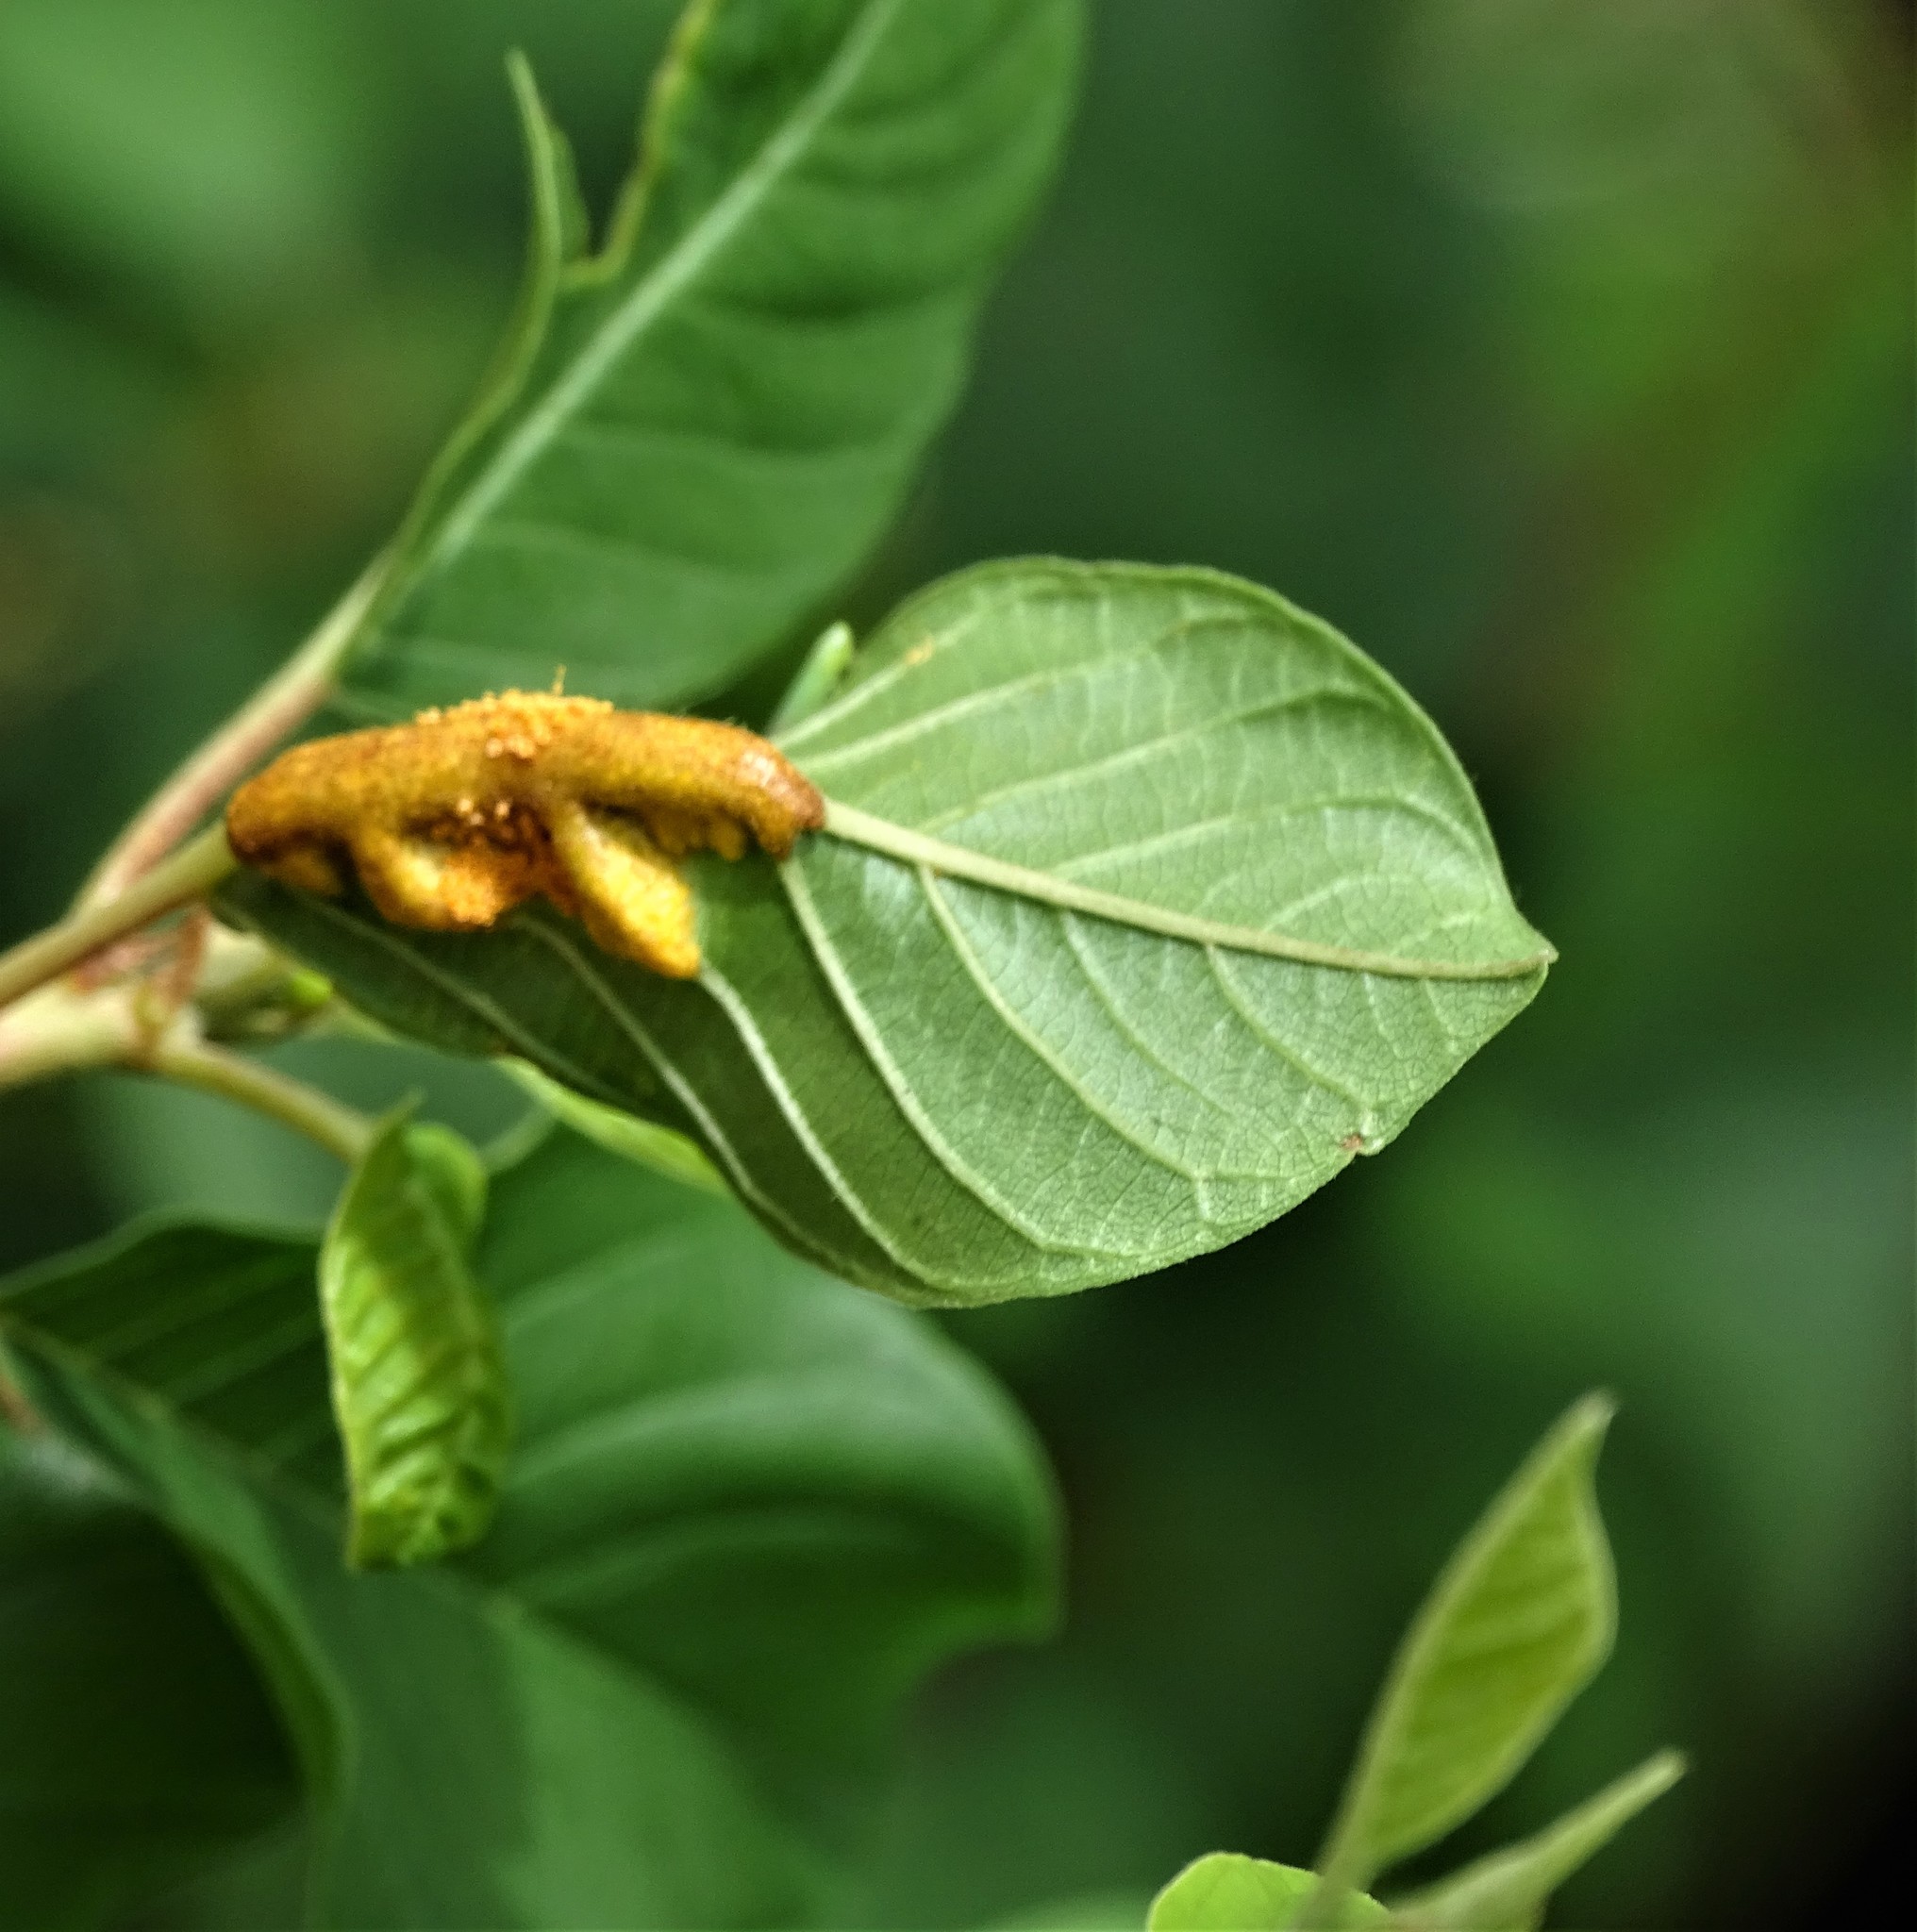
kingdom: Fungi
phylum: Basidiomycota
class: Pucciniomycetes
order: Pucciniales
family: Pucciniaceae
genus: Puccinia
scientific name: Puccinia coronata
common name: Crown rust
